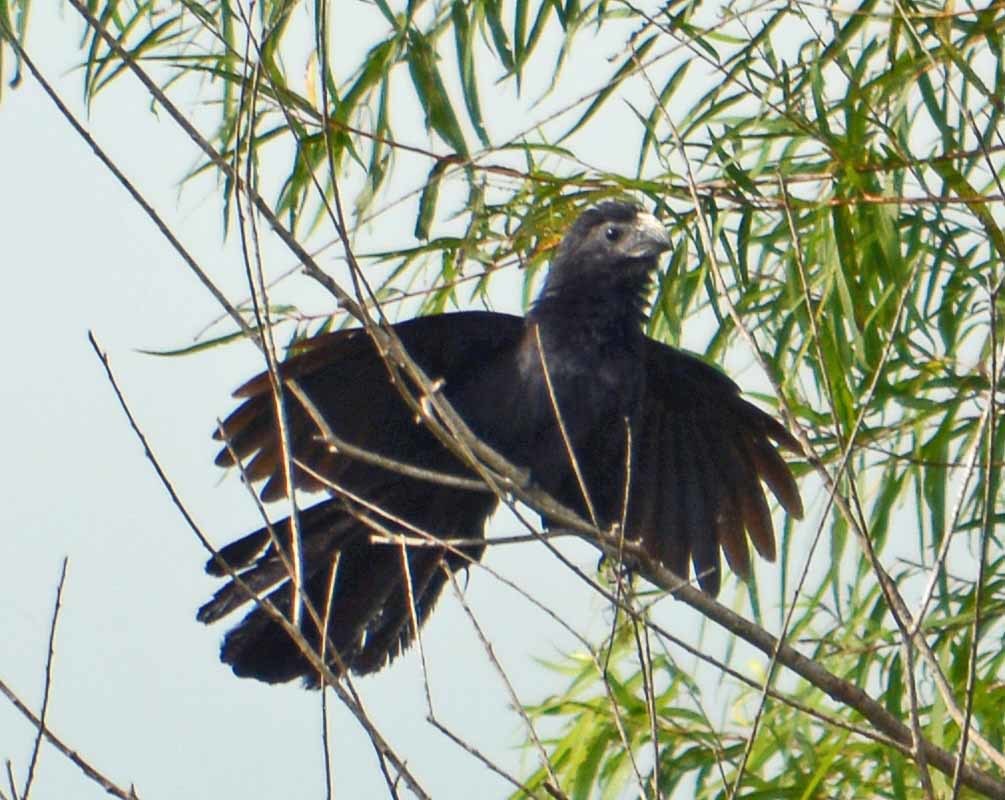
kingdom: Animalia
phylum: Chordata
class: Aves
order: Cuculiformes
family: Cuculidae
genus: Crotophaga
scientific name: Crotophaga sulcirostris
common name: Groove-billed ani
